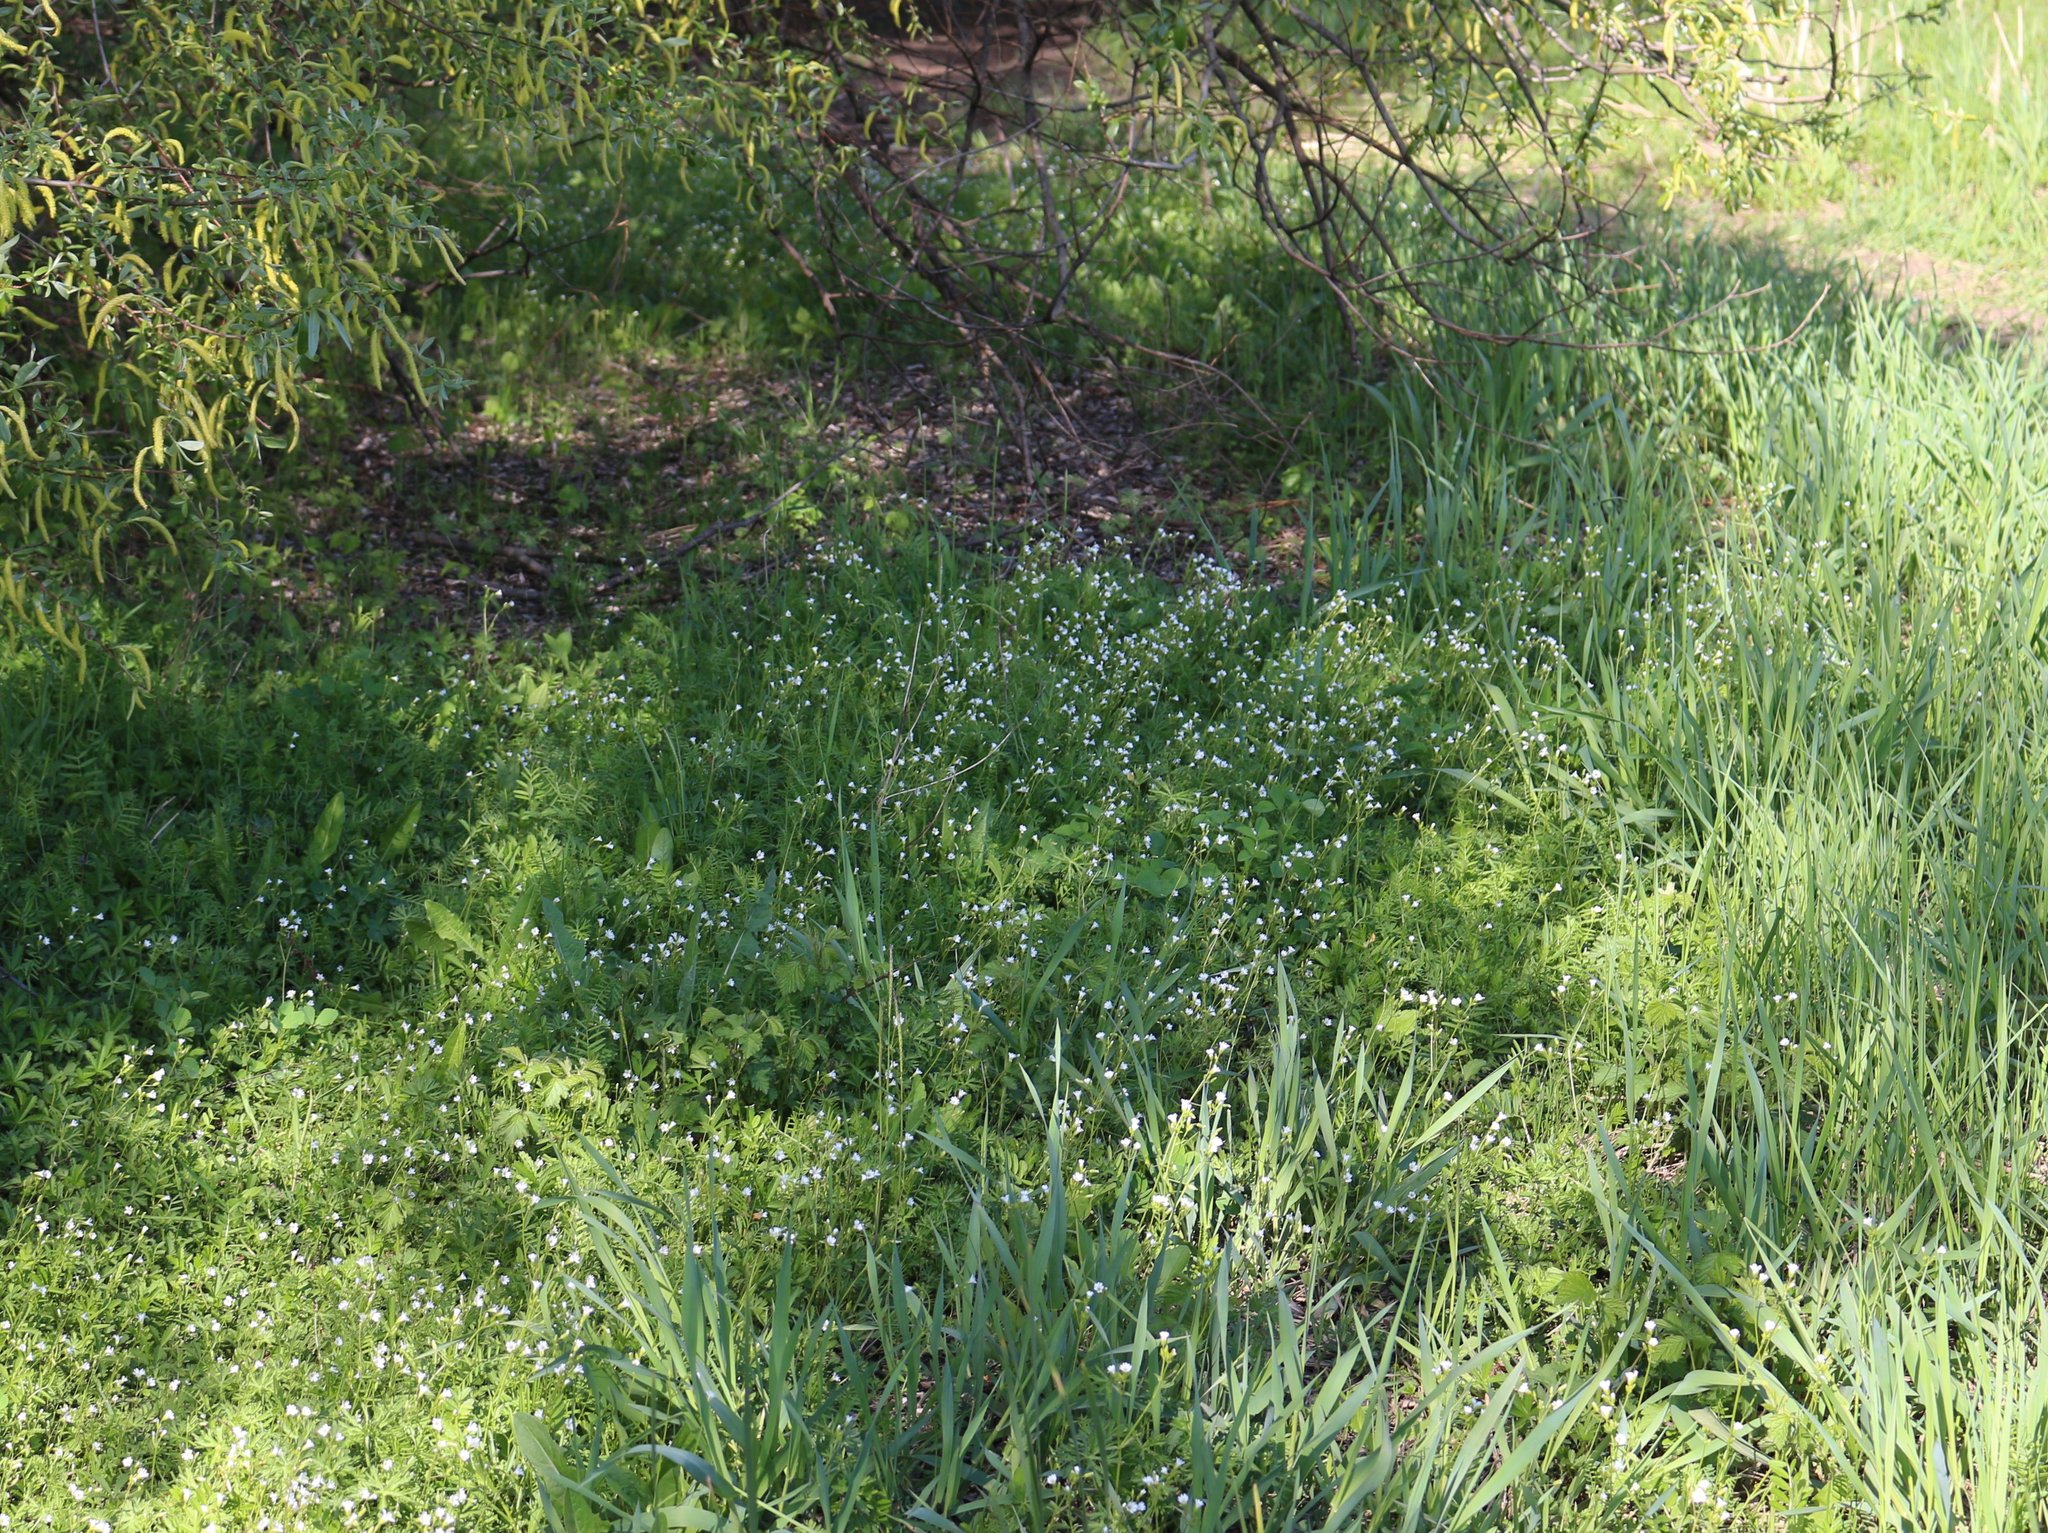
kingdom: Plantae
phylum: Tracheophyta
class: Magnoliopsida
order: Caryophyllales
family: Caryophyllaceae
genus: Dichodon
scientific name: Dichodon viscidum
